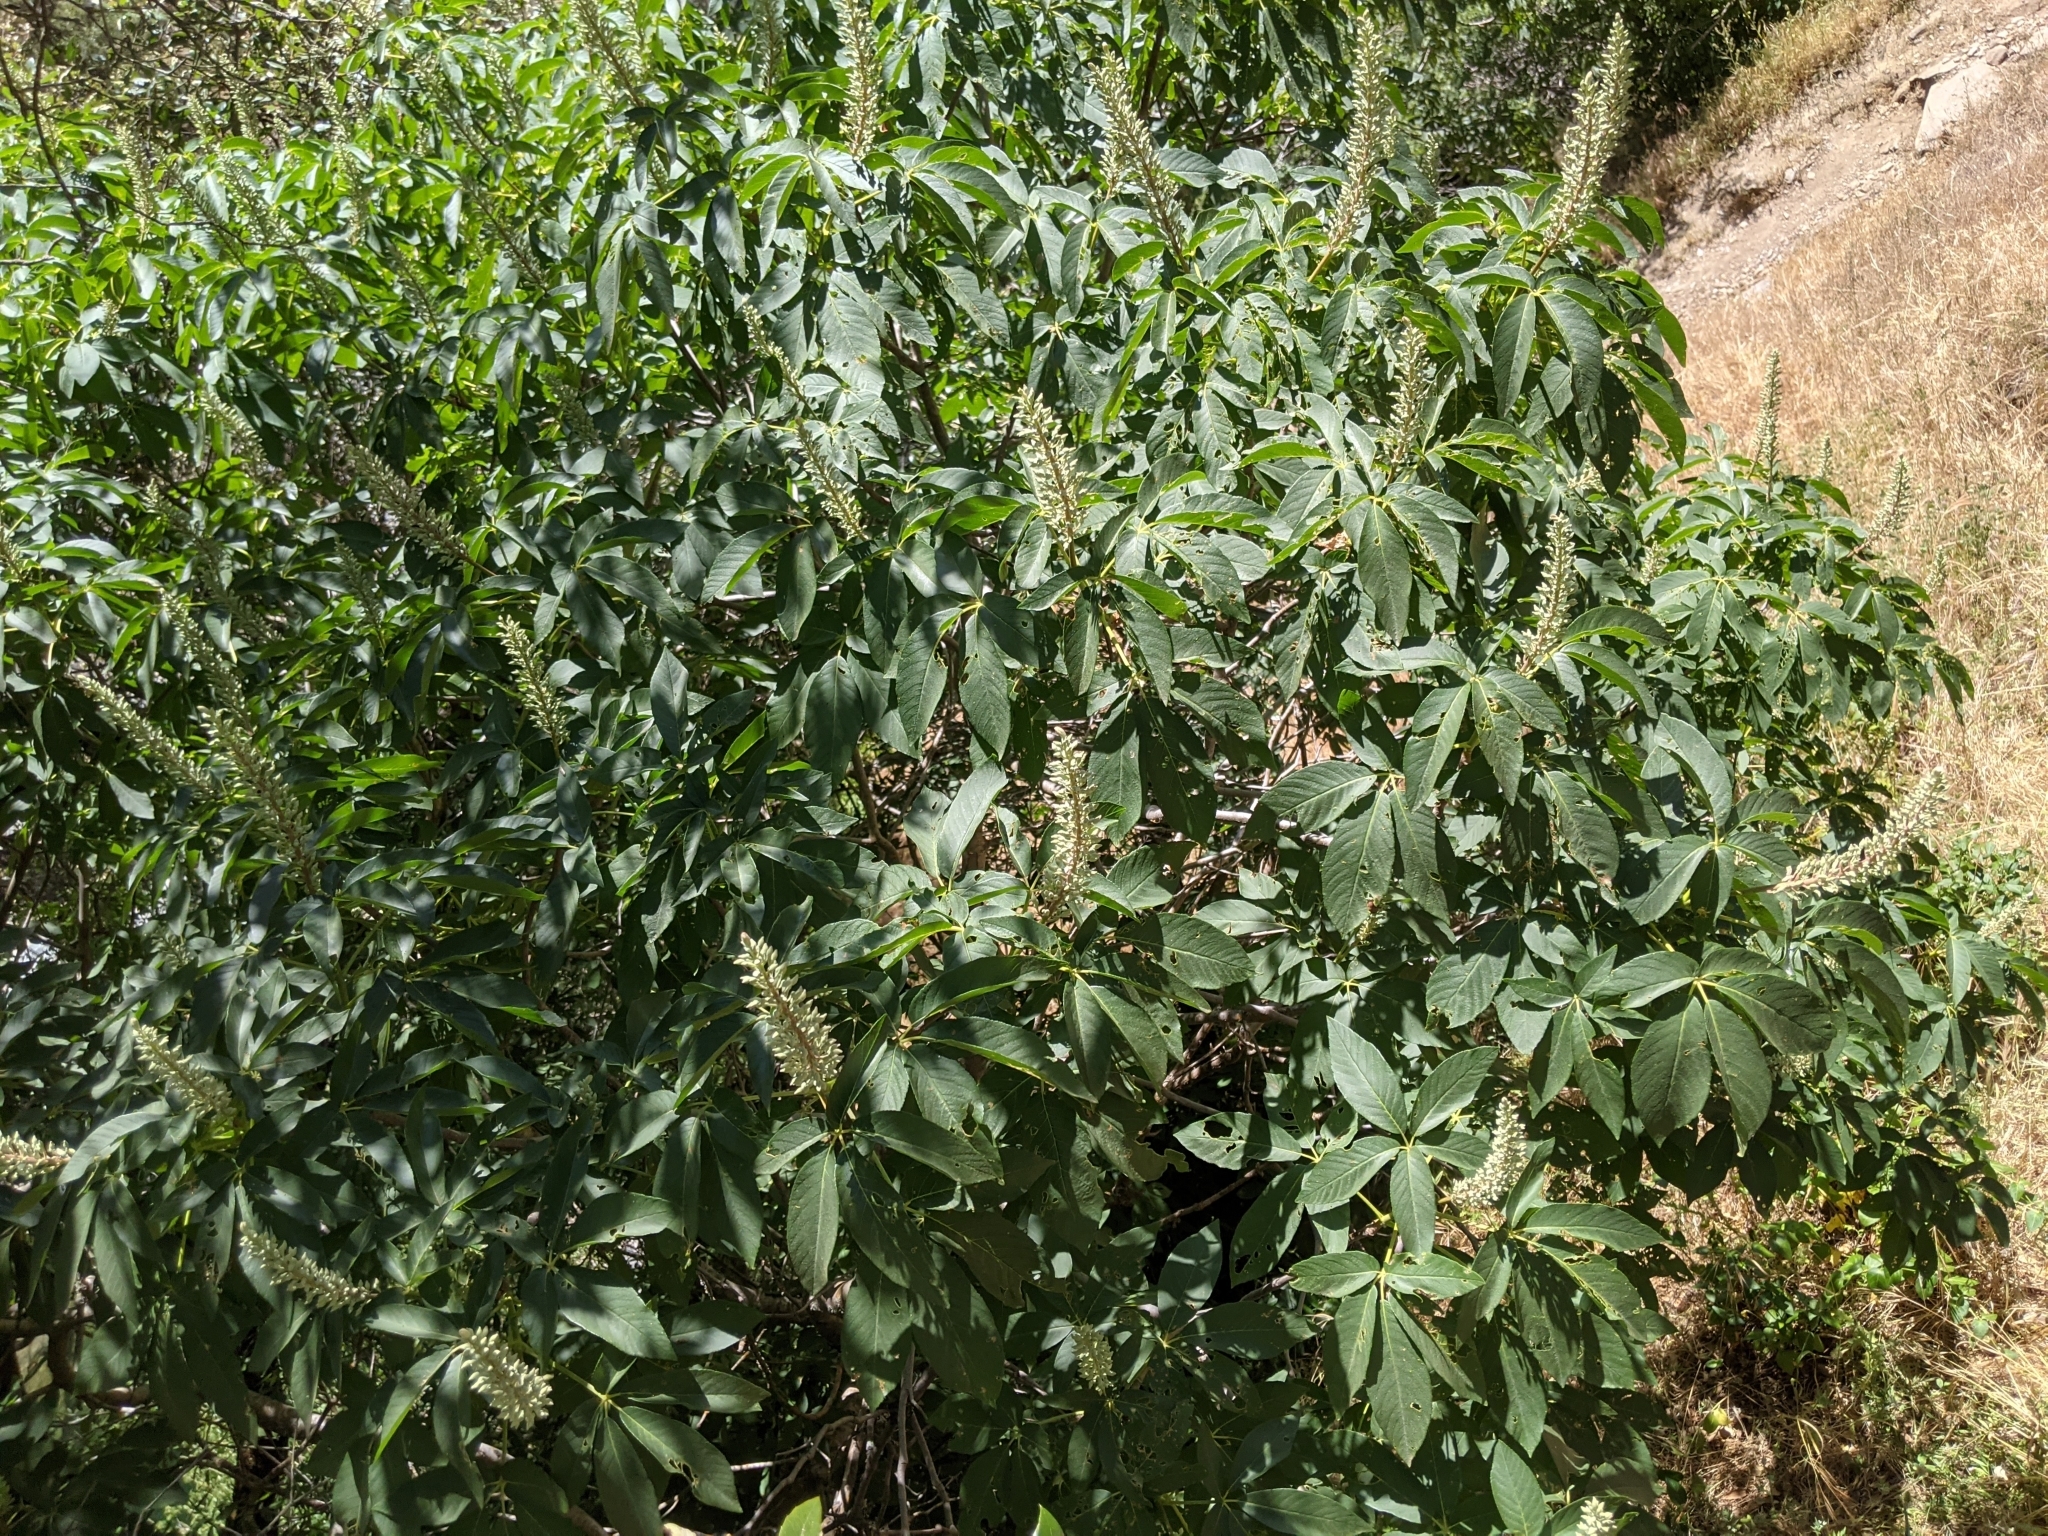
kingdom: Plantae
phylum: Tracheophyta
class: Magnoliopsida
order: Sapindales
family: Sapindaceae
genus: Aesculus
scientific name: Aesculus californica
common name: California buckeye
